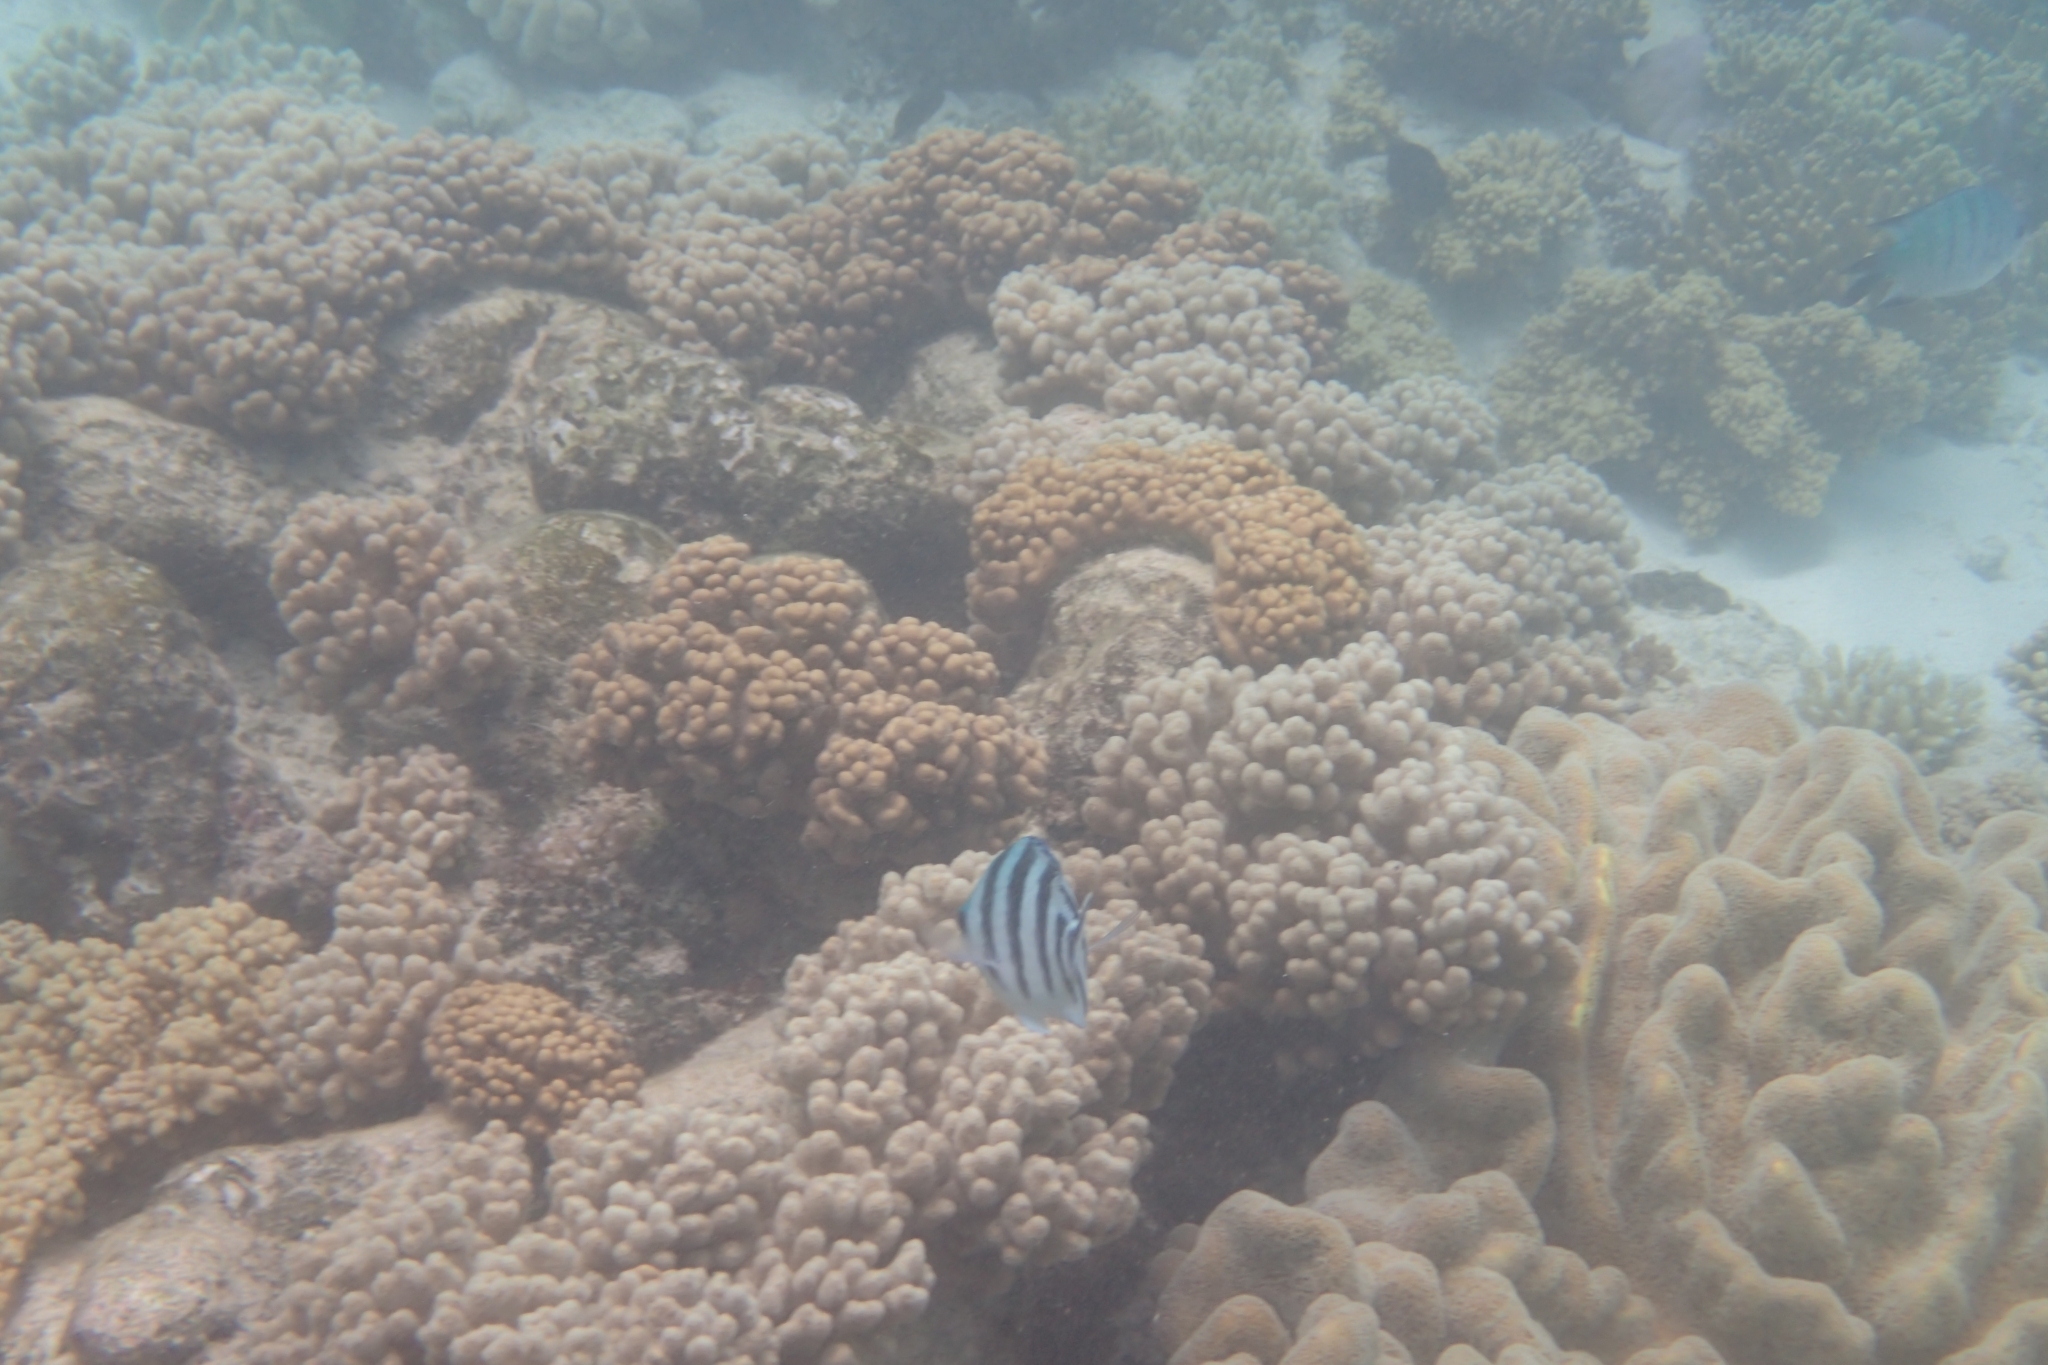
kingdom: Animalia
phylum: Chordata
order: Perciformes
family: Pomacentridae
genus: Abudefduf
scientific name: Abudefduf sexfasciatus
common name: Scissortail sergeant
